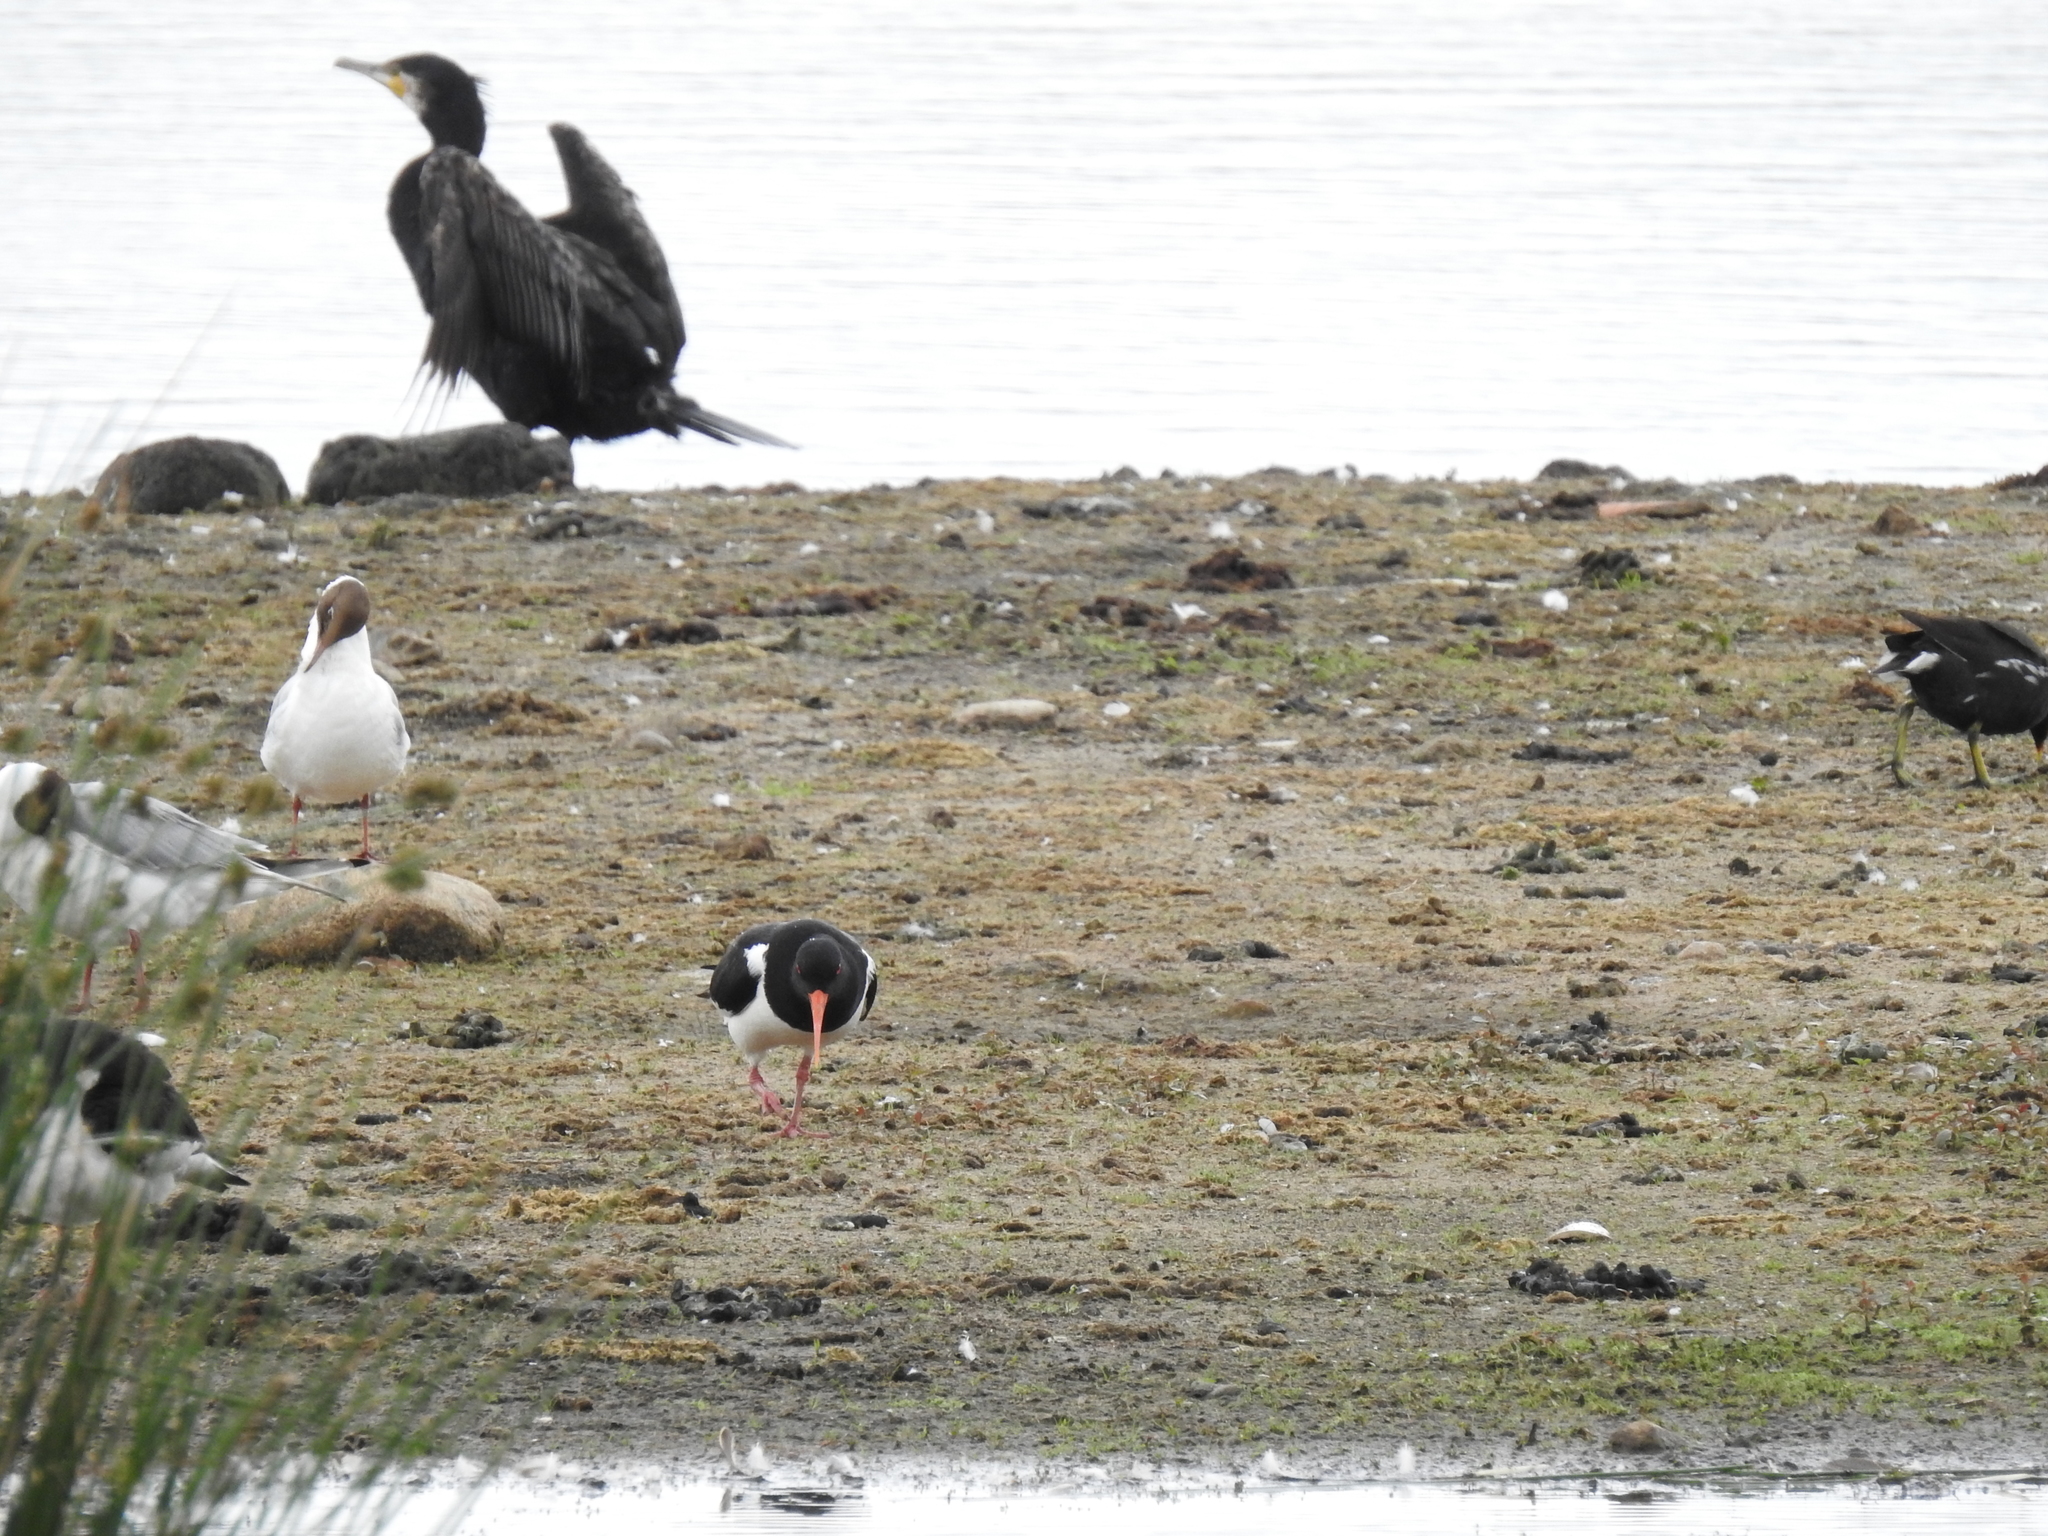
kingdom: Animalia
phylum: Chordata
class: Aves
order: Charadriiformes
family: Haematopodidae
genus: Haematopus
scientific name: Haematopus ostralegus
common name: Eurasian oystercatcher
